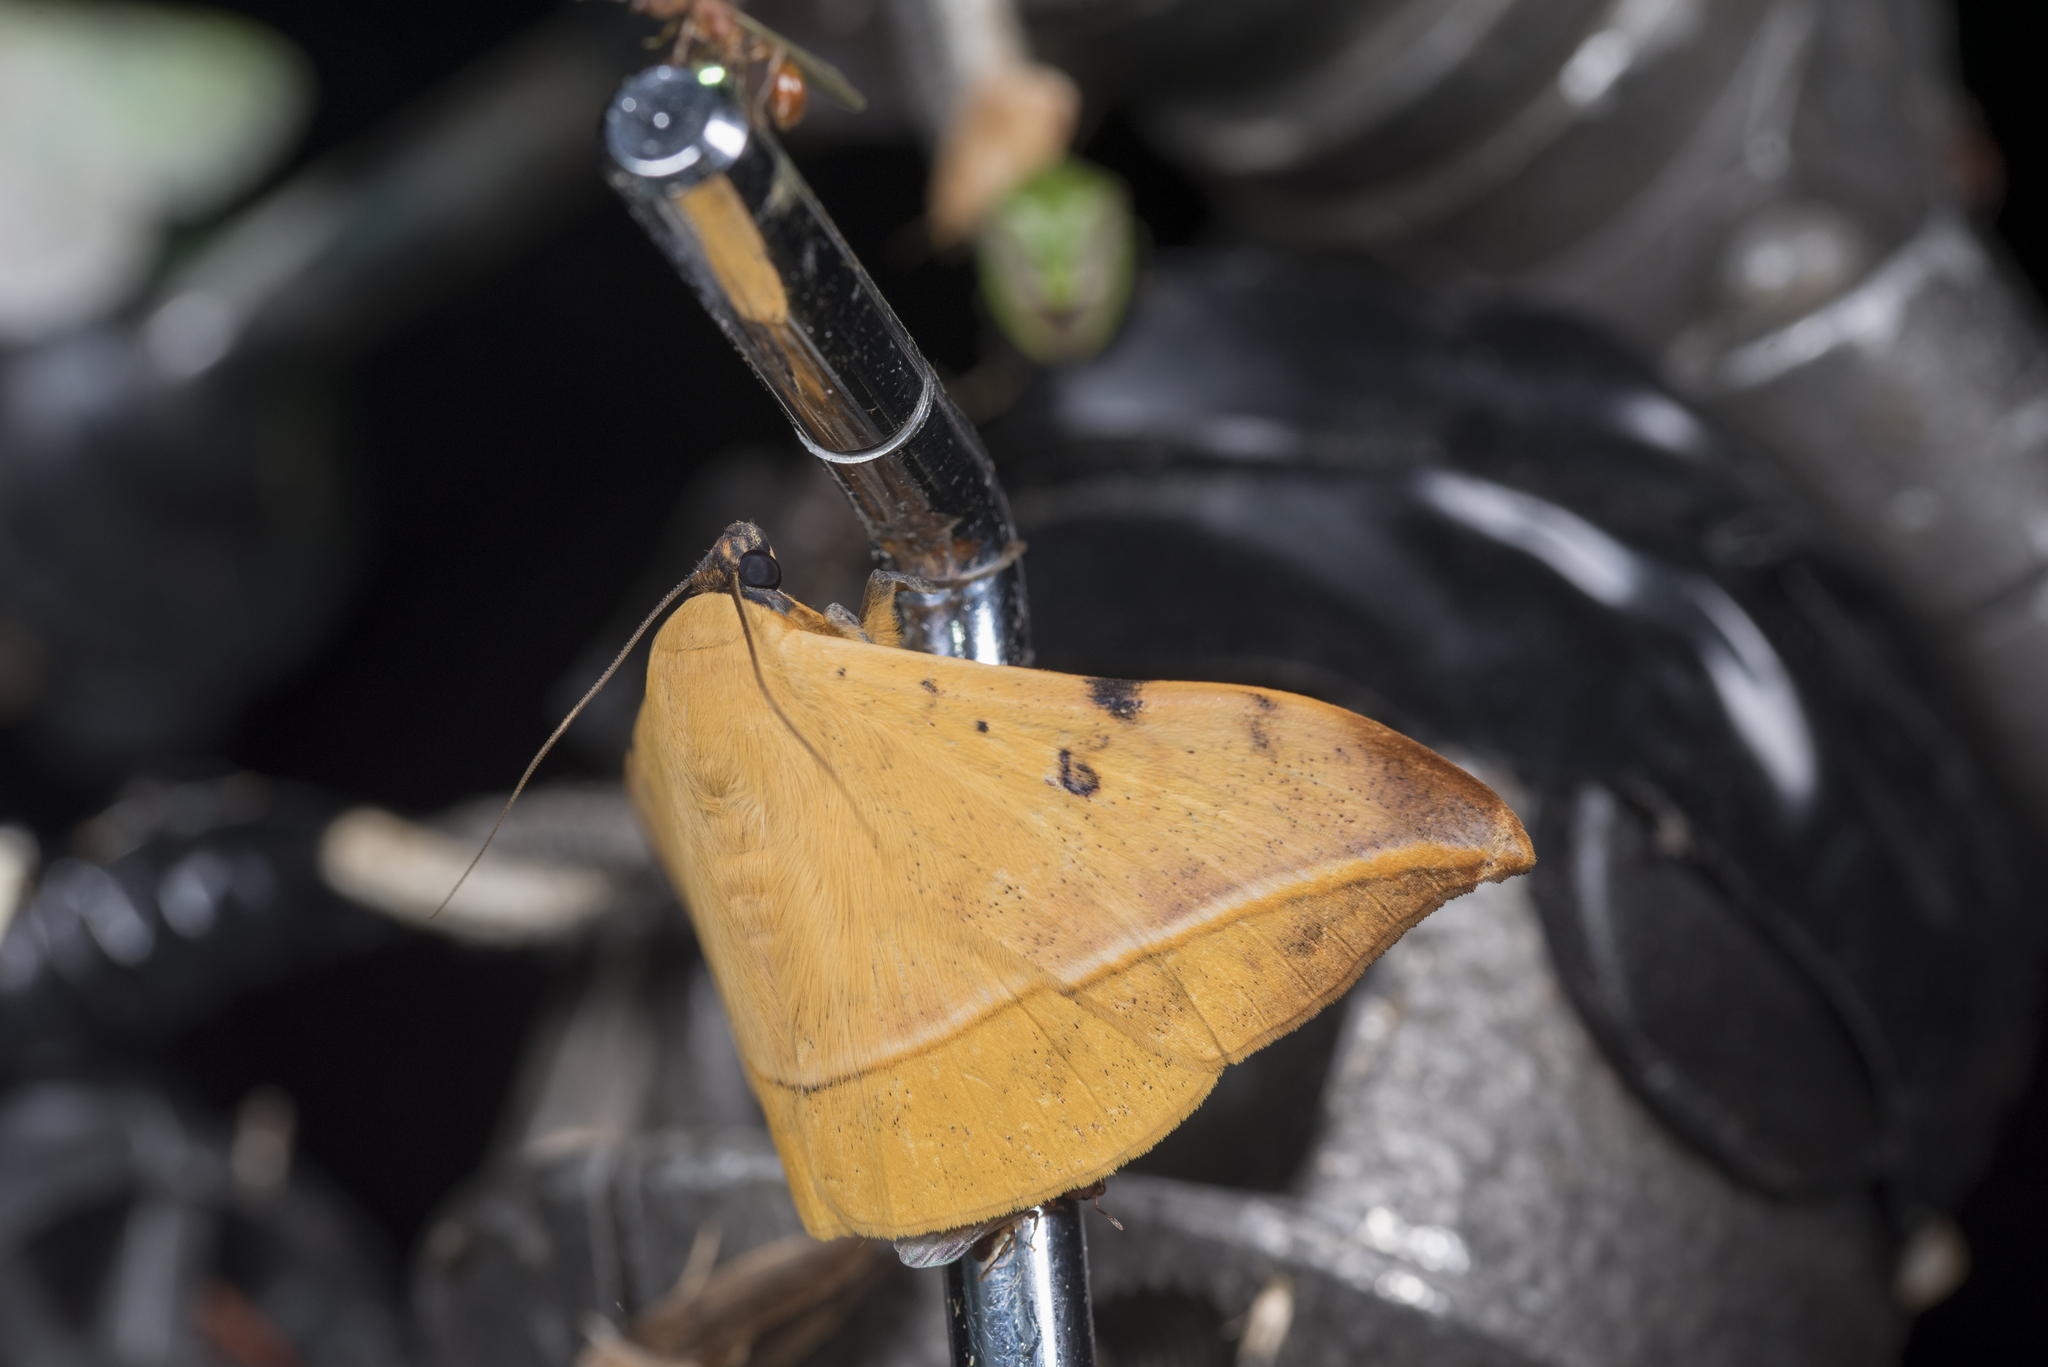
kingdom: Animalia
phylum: Arthropoda
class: Insecta
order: Lepidoptera
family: Erebidae
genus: Hamodes
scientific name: Hamodes propitia
